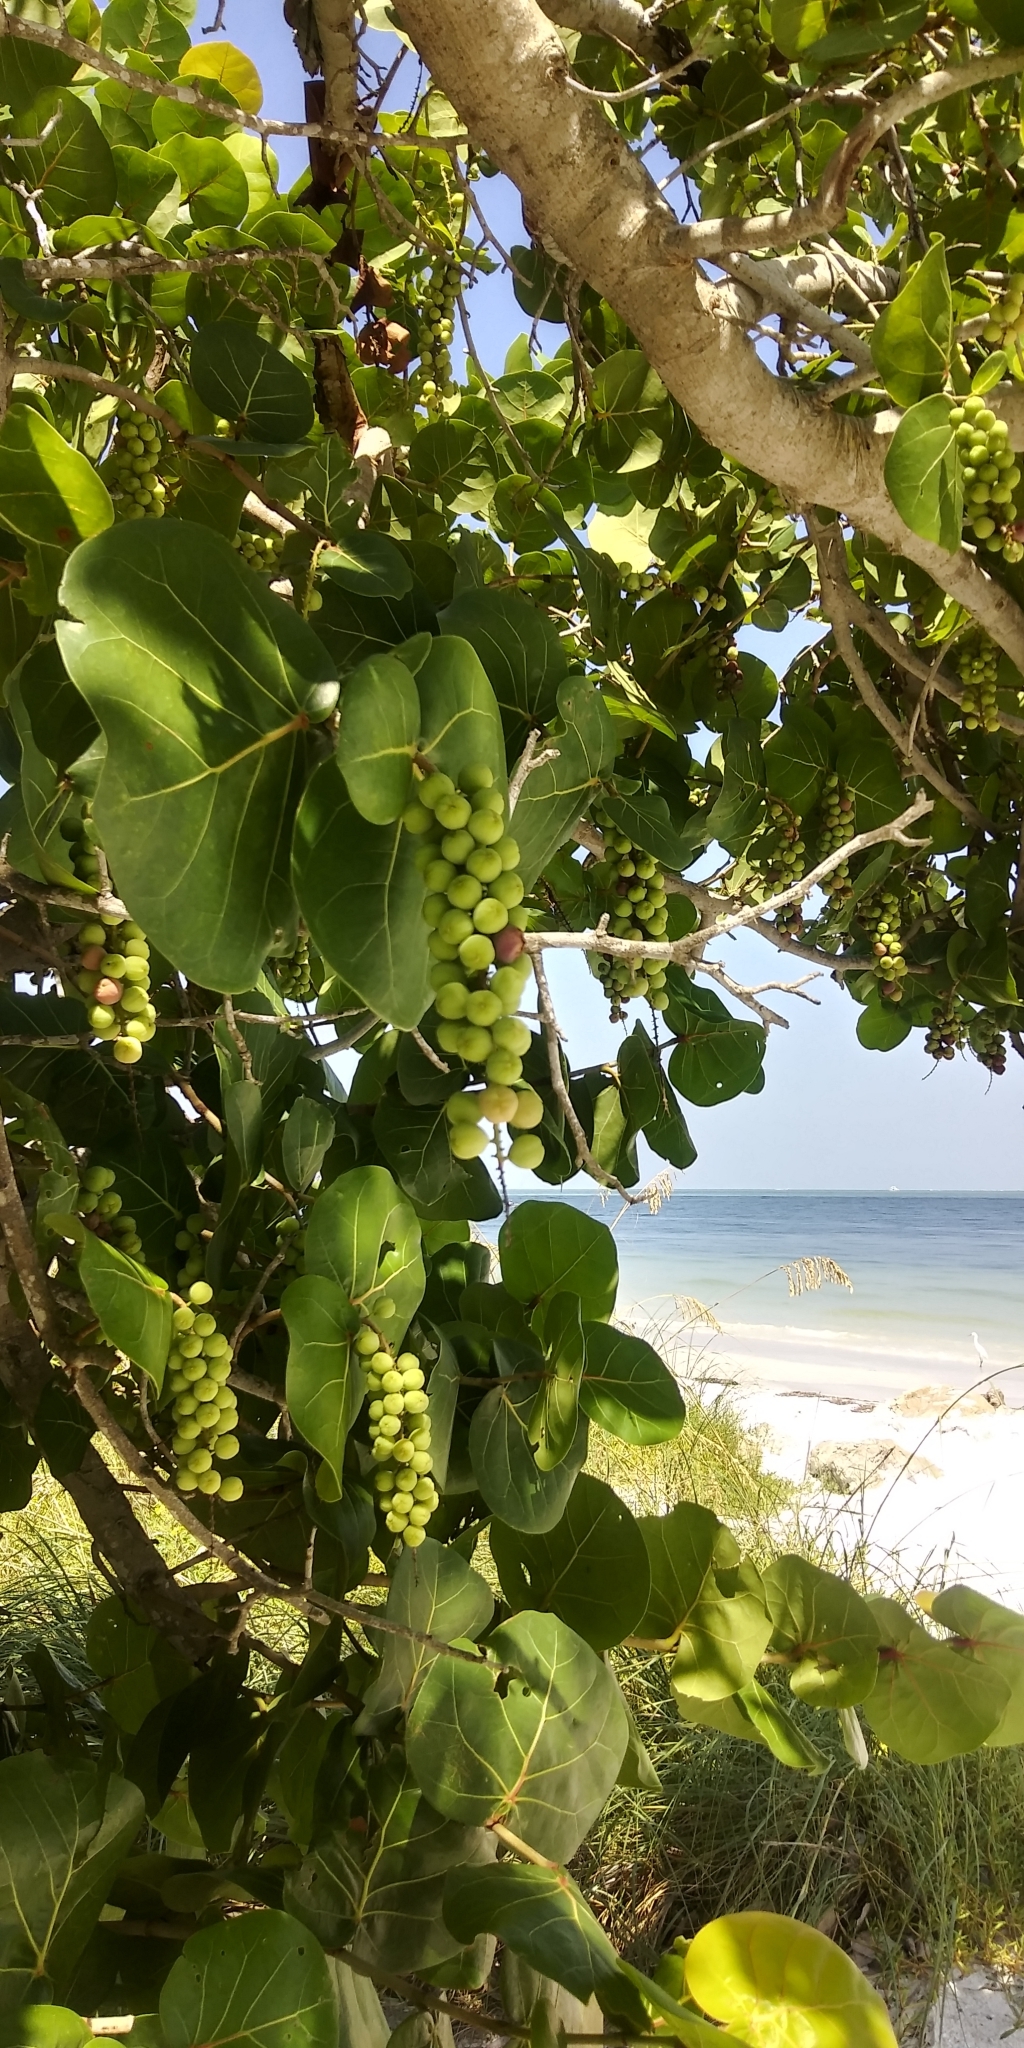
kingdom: Plantae
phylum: Tracheophyta
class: Magnoliopsida
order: Caryophyllales
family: Polygonaceae
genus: Coccoloba
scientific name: Coccoloba uvifera
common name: Seagrape
